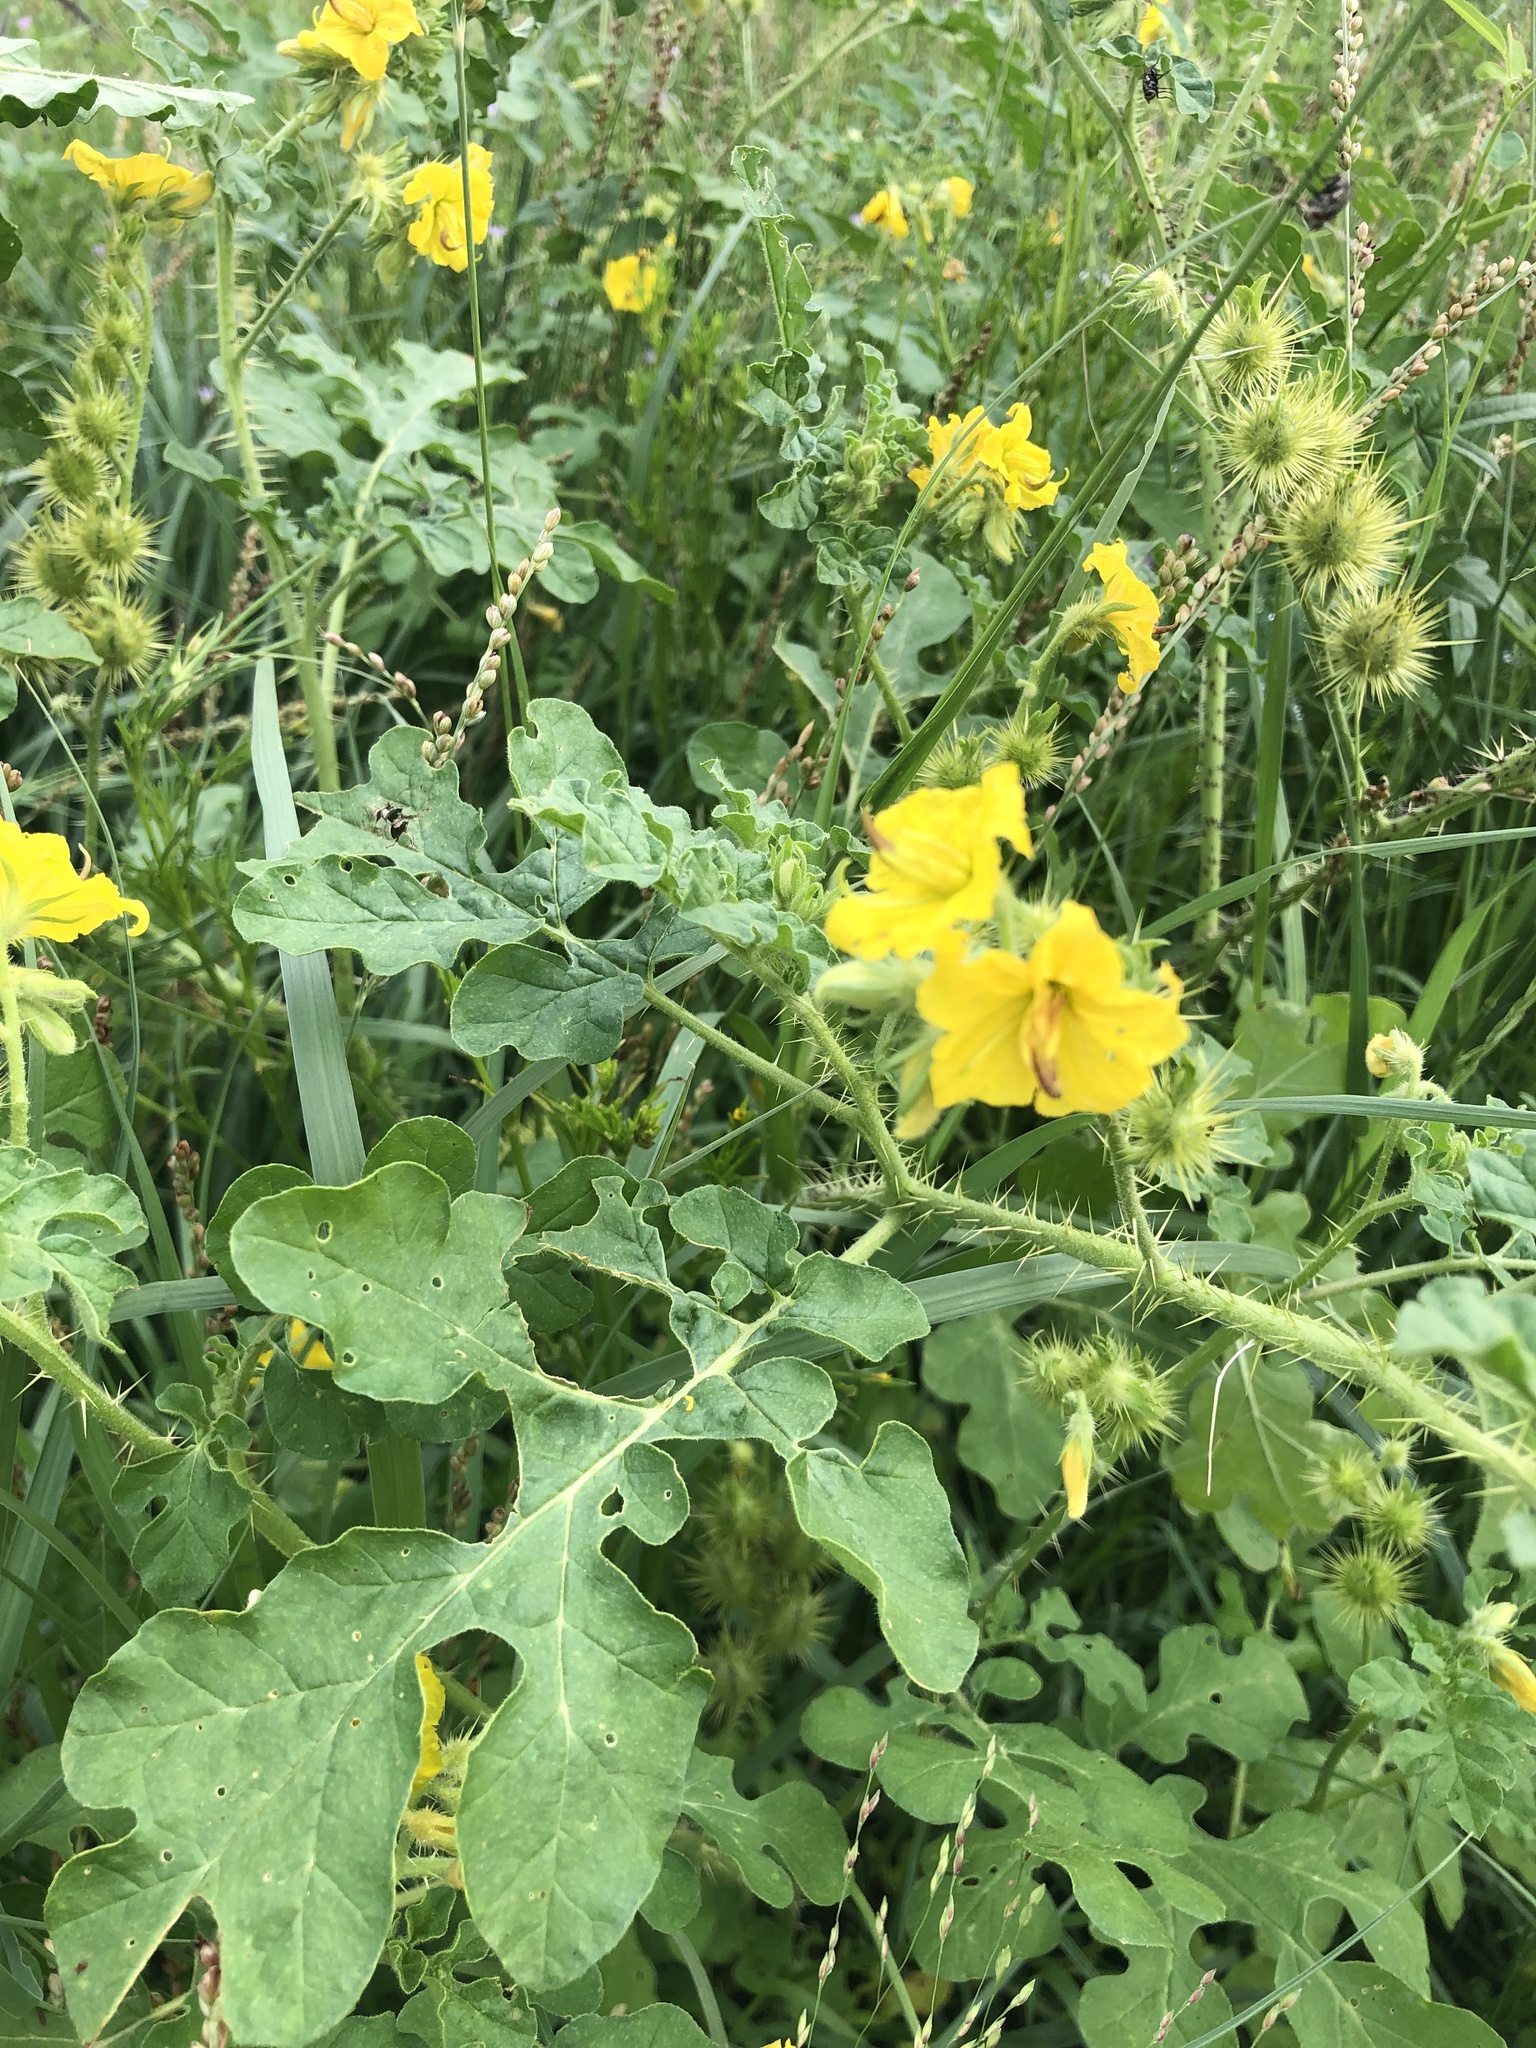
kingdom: Plantae
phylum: Tracheophyta
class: Magnoliopsida
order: Solanales
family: Solanaceae
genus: Solanum
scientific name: Solanum angustifolium
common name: Buffalobur nightshade
